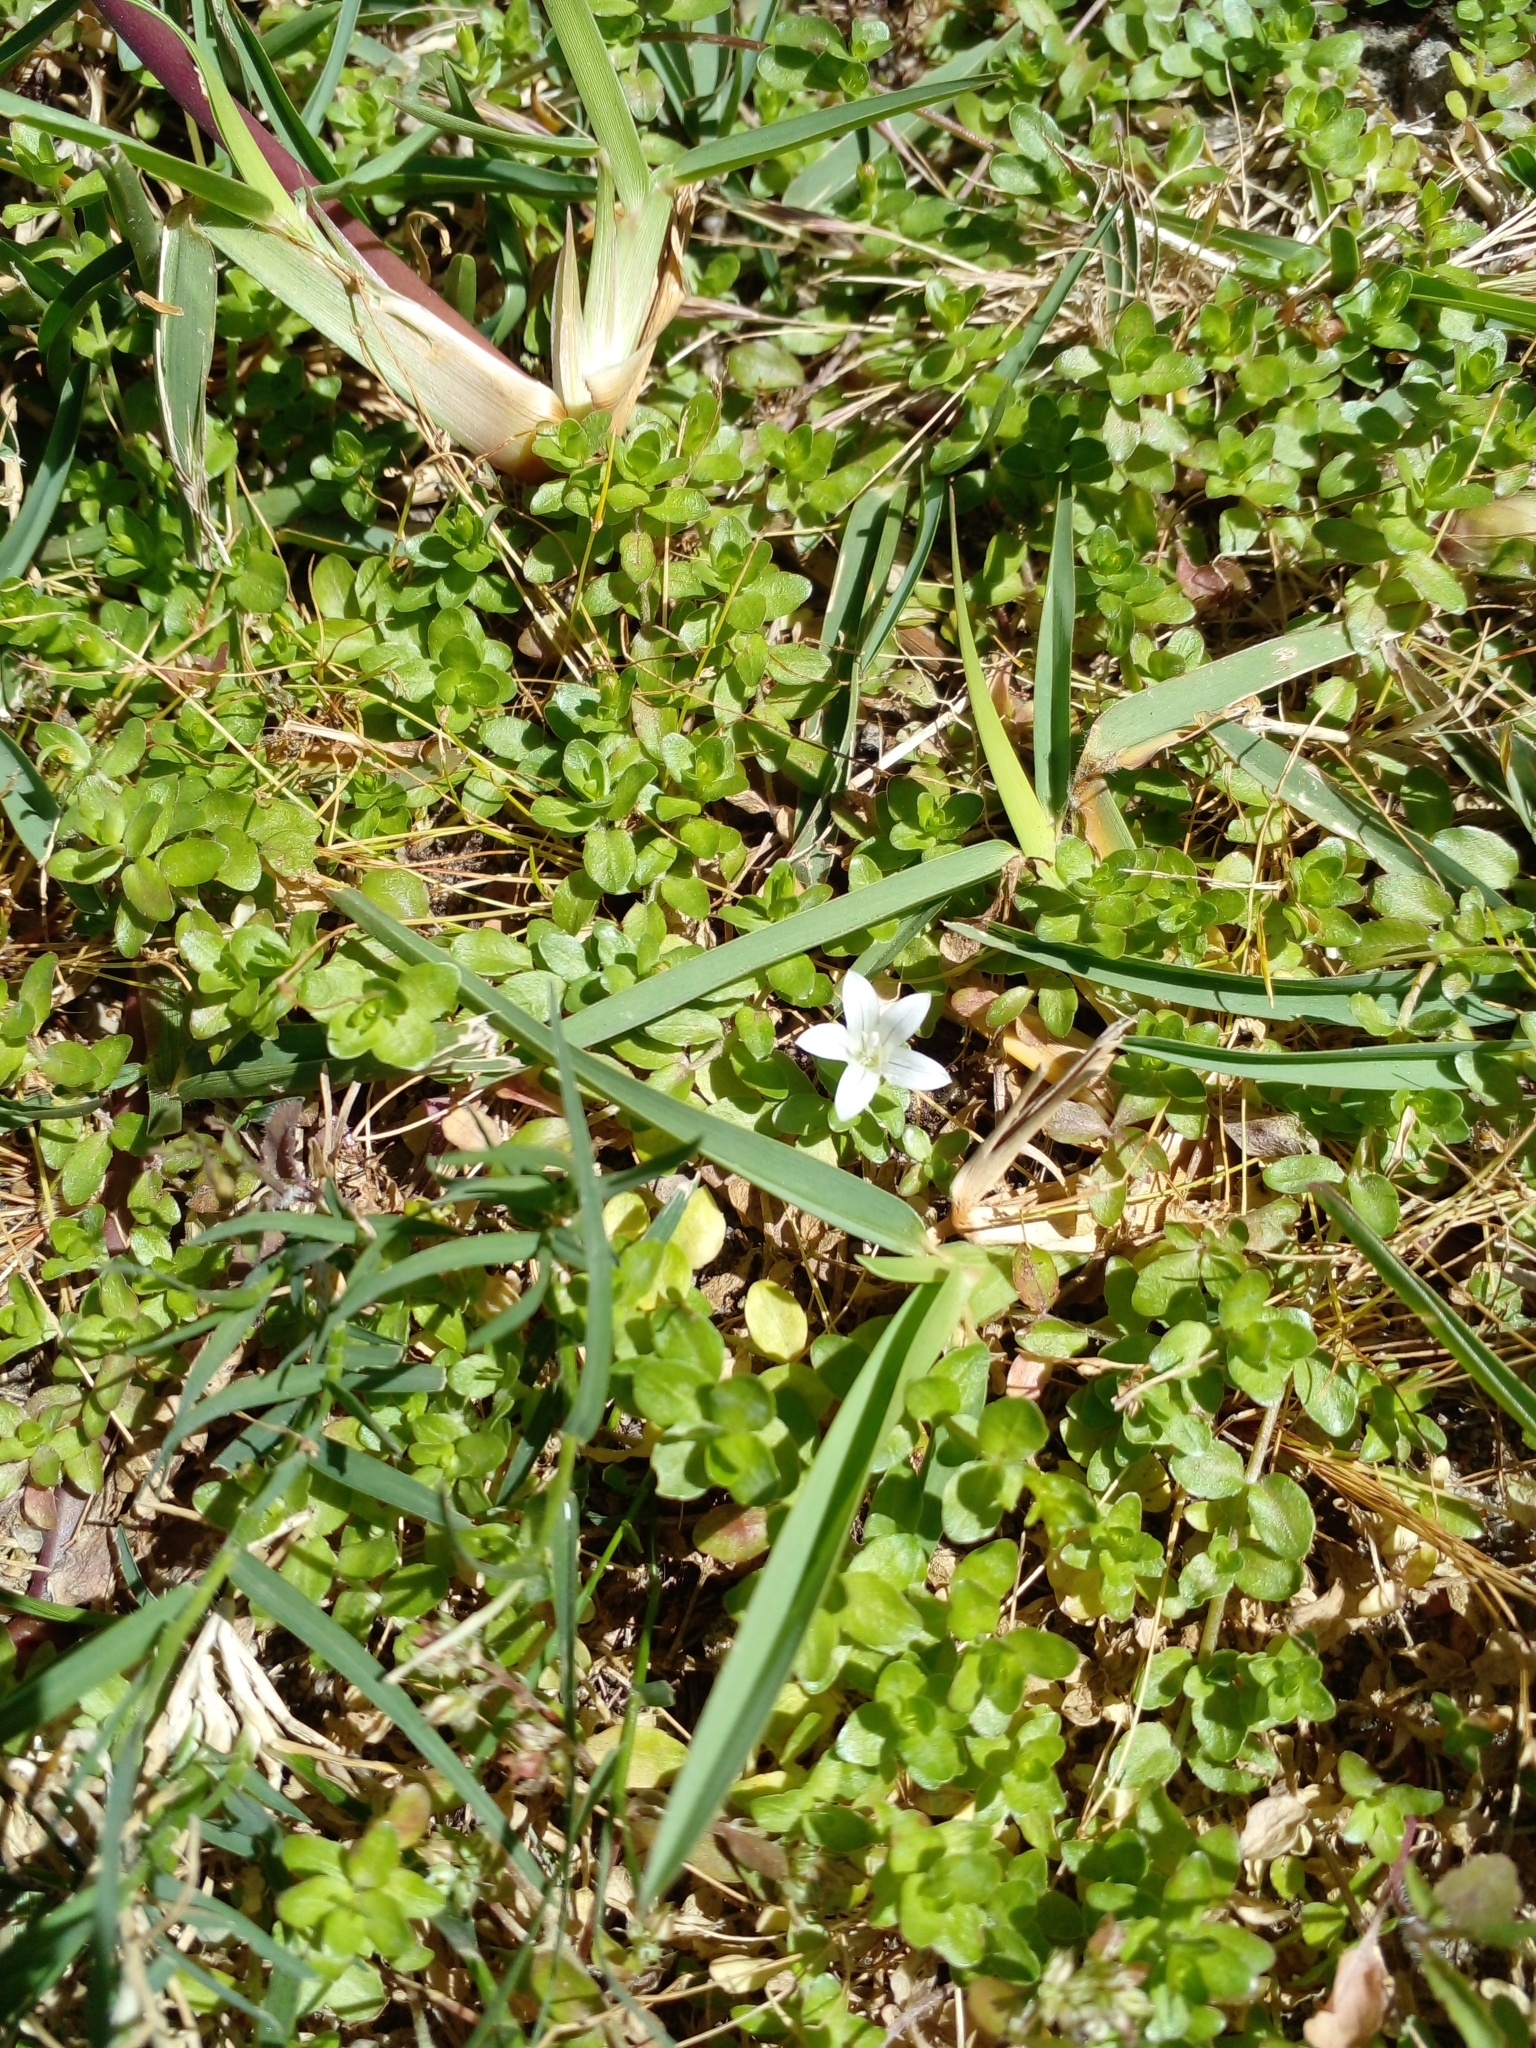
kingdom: Plantae
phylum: Tracheophyta
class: Magnoliopsida
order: Asterales
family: Campanulaceae
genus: Wahlenbergia
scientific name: Wahlenbergia procumbens
